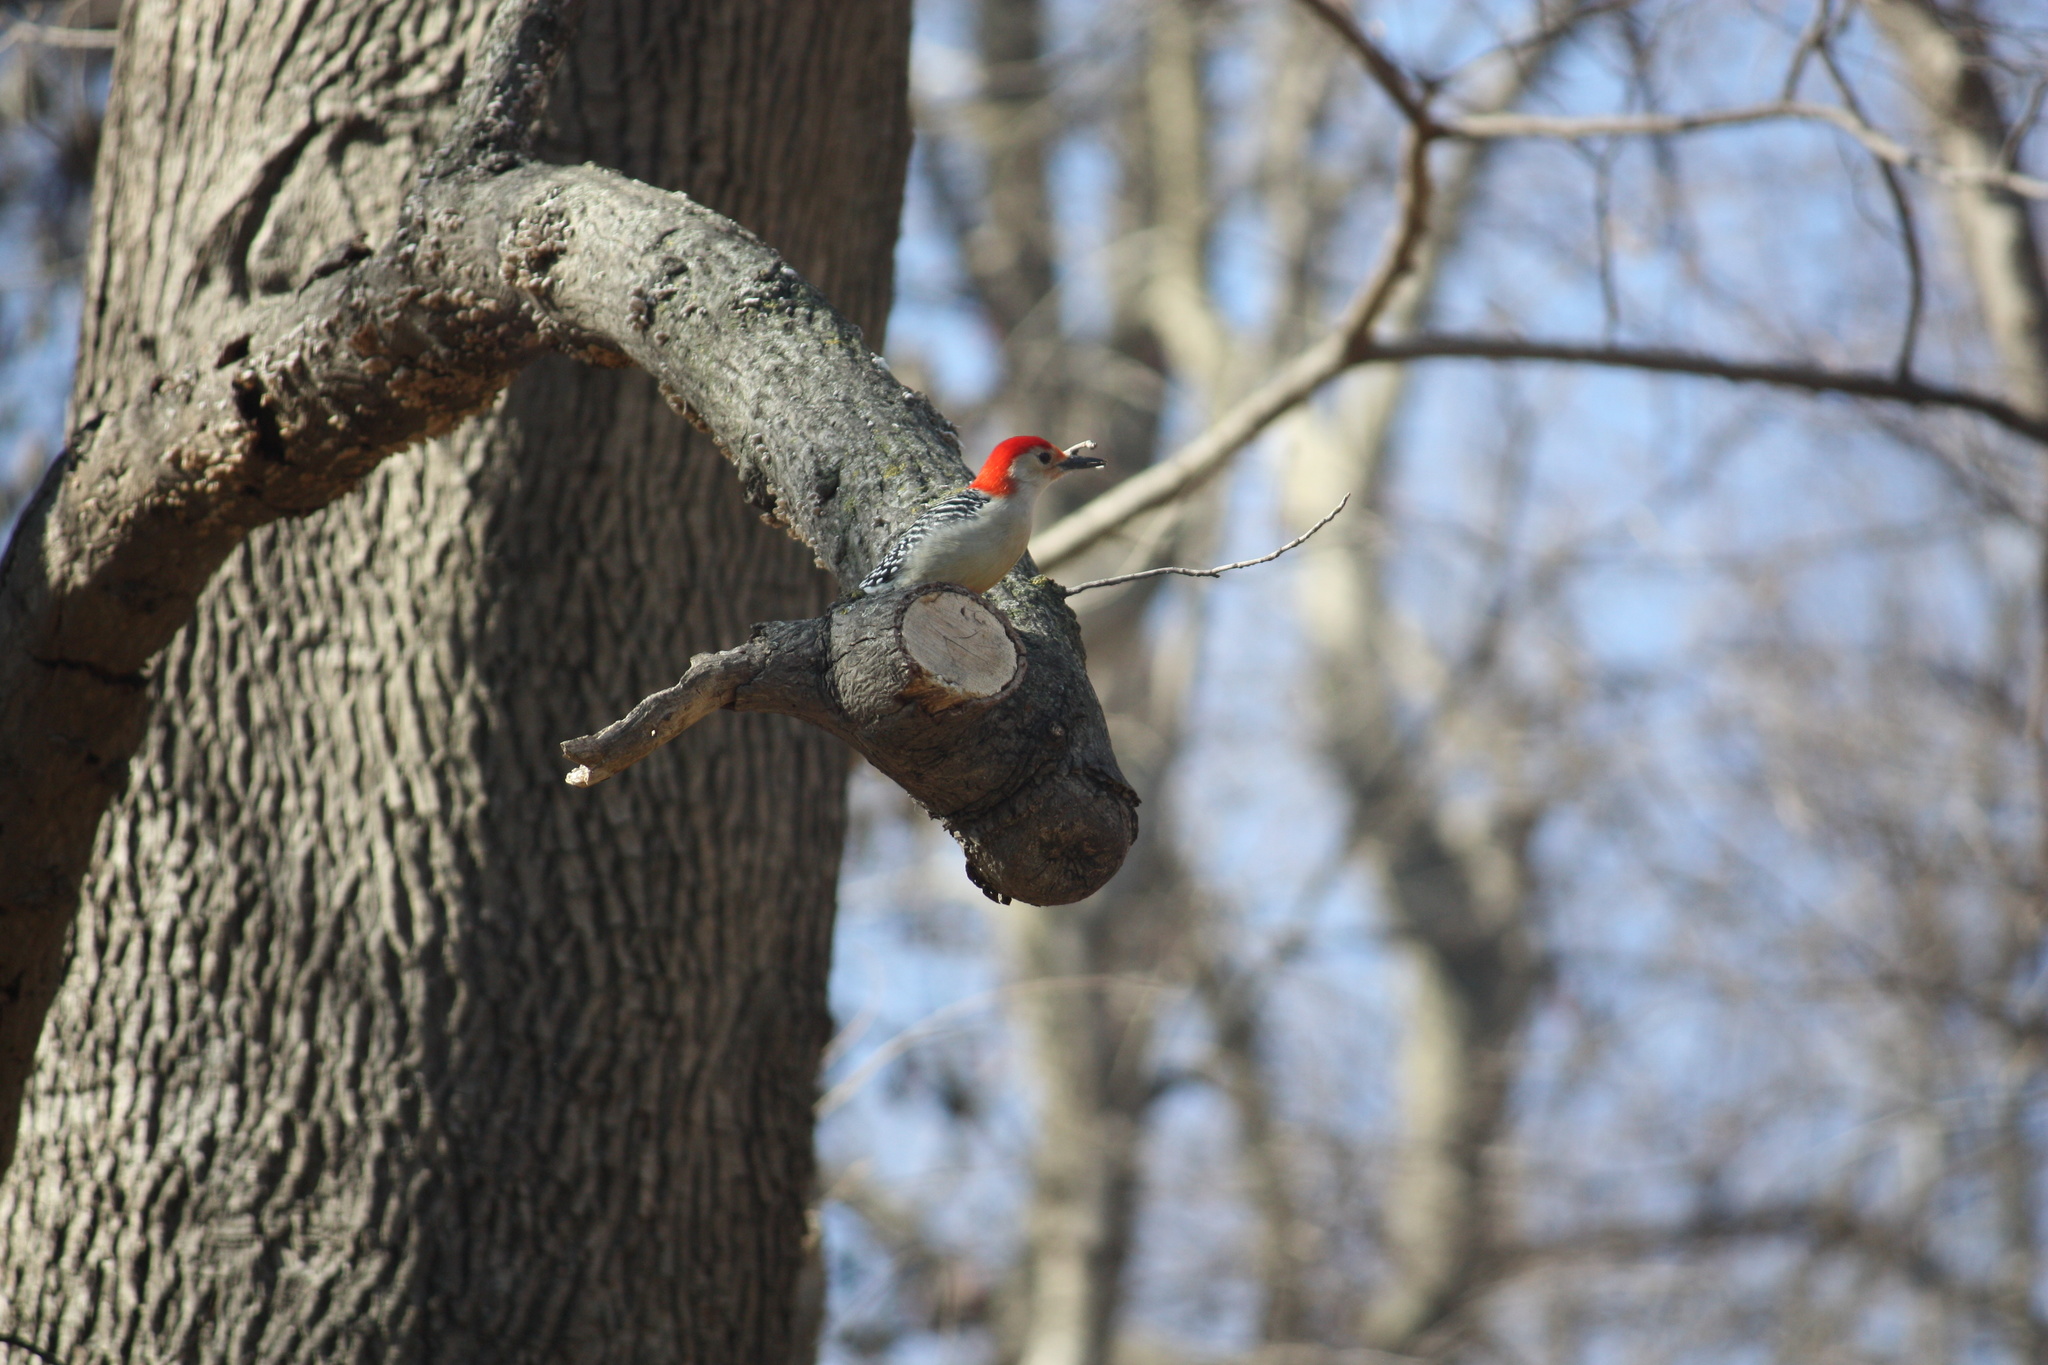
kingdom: Animalia
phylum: Chordata
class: Aves
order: Piciformes
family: Picidae
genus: Melanerpes
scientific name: Melanerpes carolinus
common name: Red-bellied woodpecker
